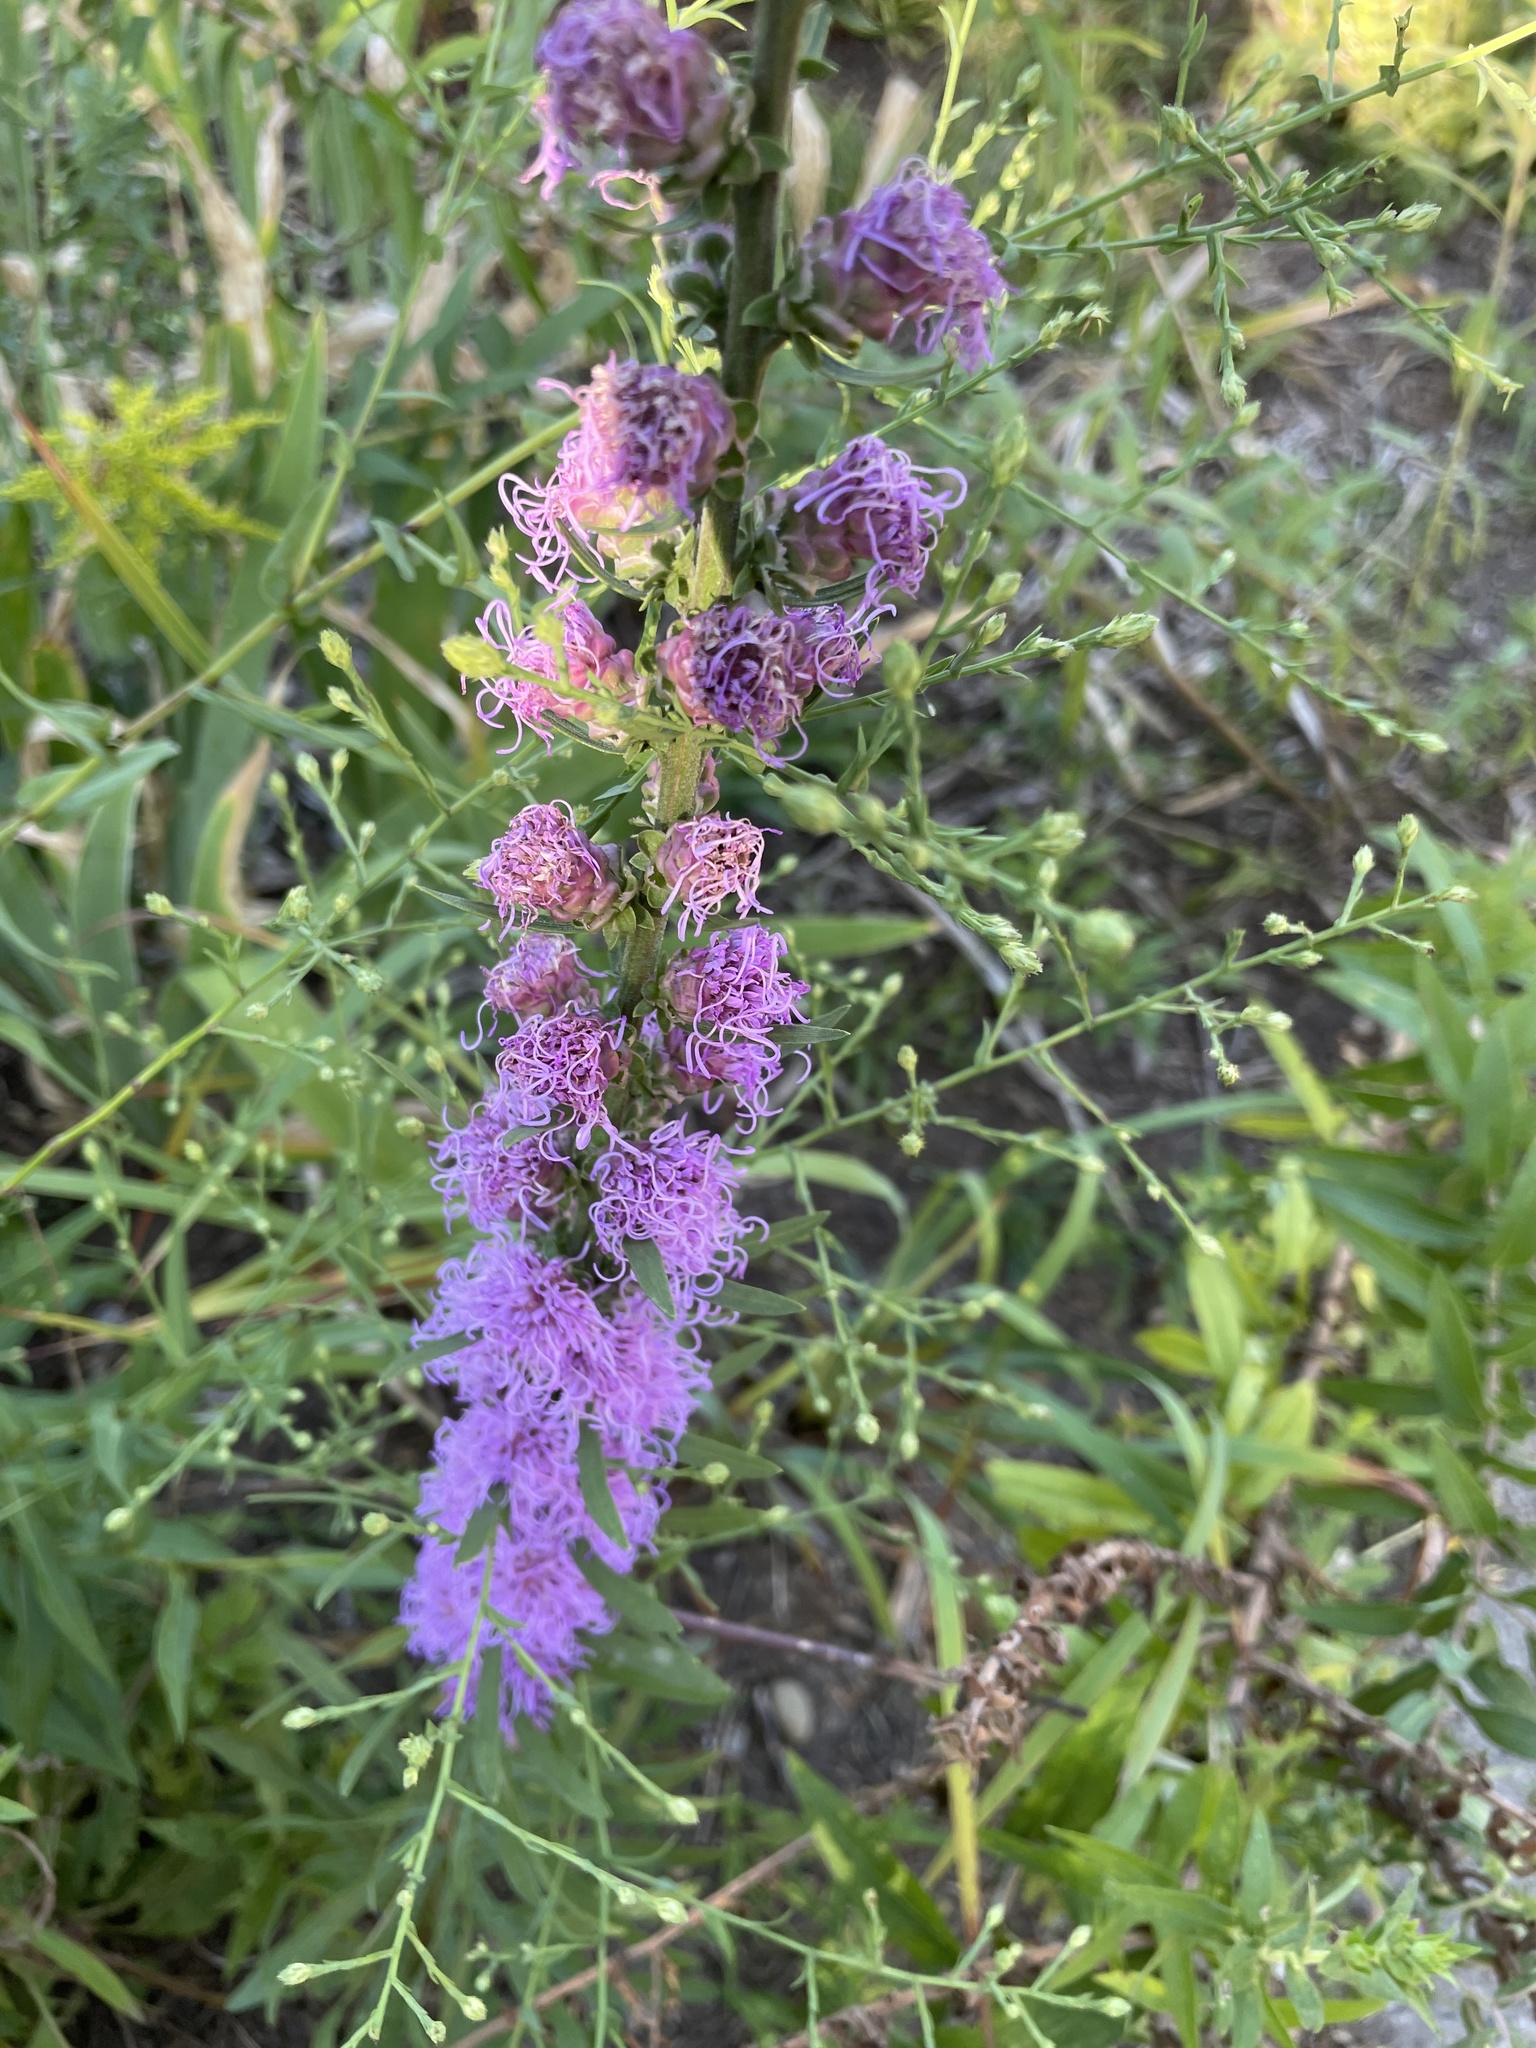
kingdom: Plantae
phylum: Tracheophyta
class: Magnoliopsida
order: Asterales
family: Asteraceae
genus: Liatris
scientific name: Liatris aspera
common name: Lacerate blazing-star
